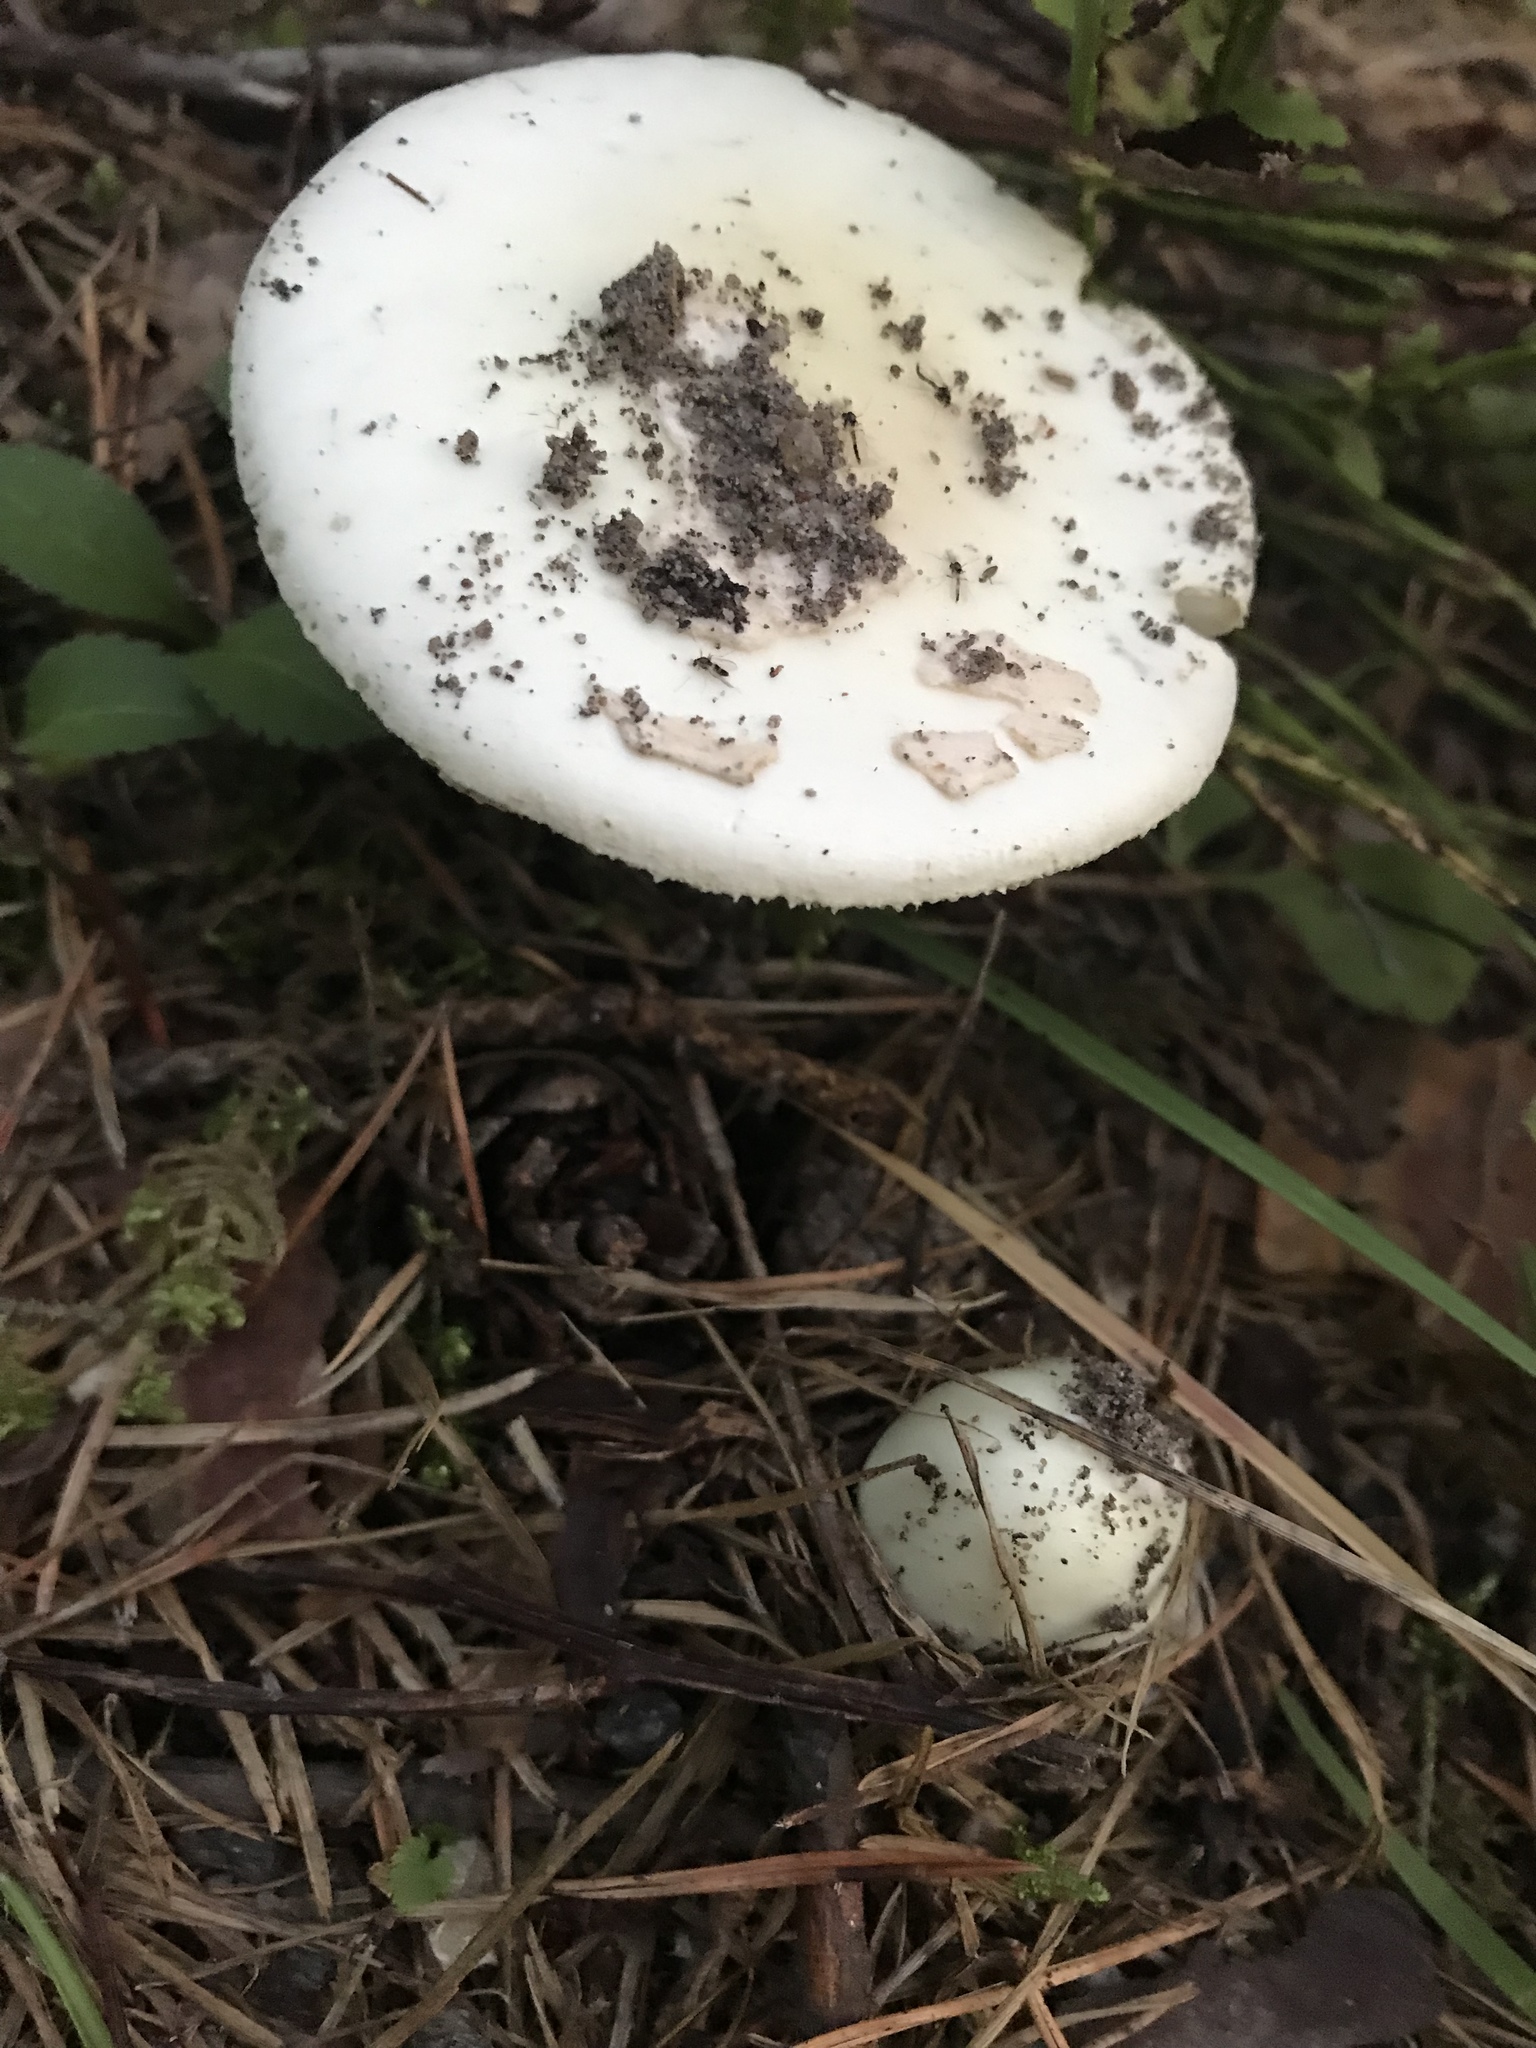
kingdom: Fungi
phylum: Basidiomycota
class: Agaricomycetes
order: Agaricales
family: Amanitaceae
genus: Amanita
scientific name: Amanita citrina
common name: False death-cap
